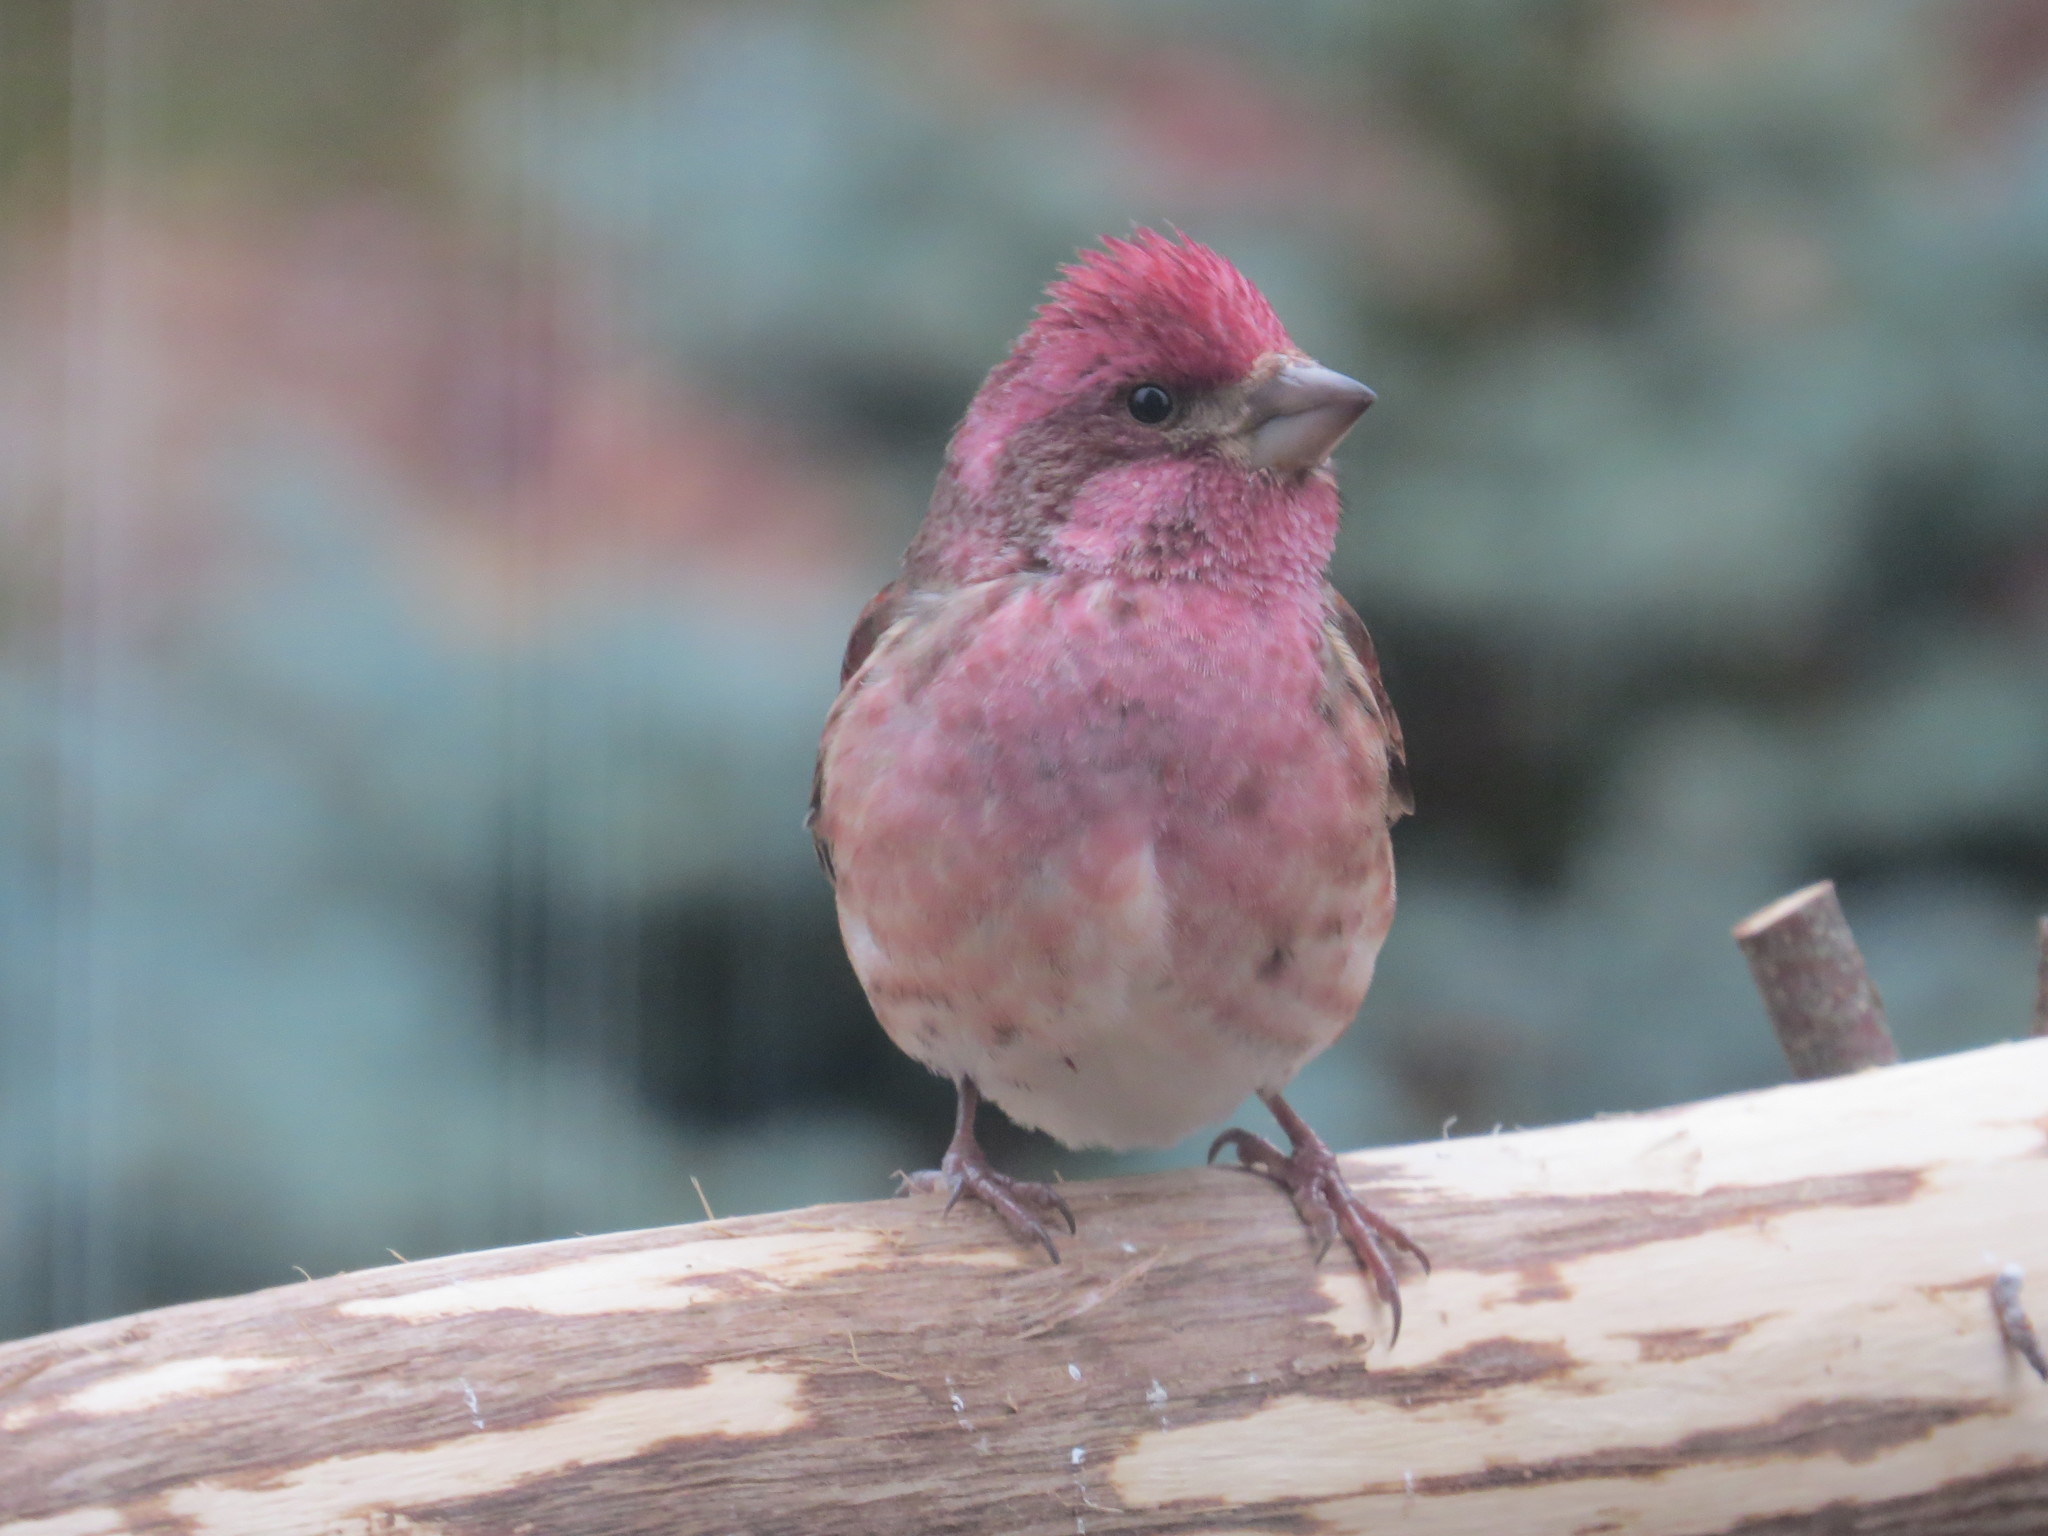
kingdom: Animalia
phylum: Chordata
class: Aves
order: Passeriformes
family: Fringillidae
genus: Haemorhous
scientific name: Haemorhous purpureus
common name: Purple finch
